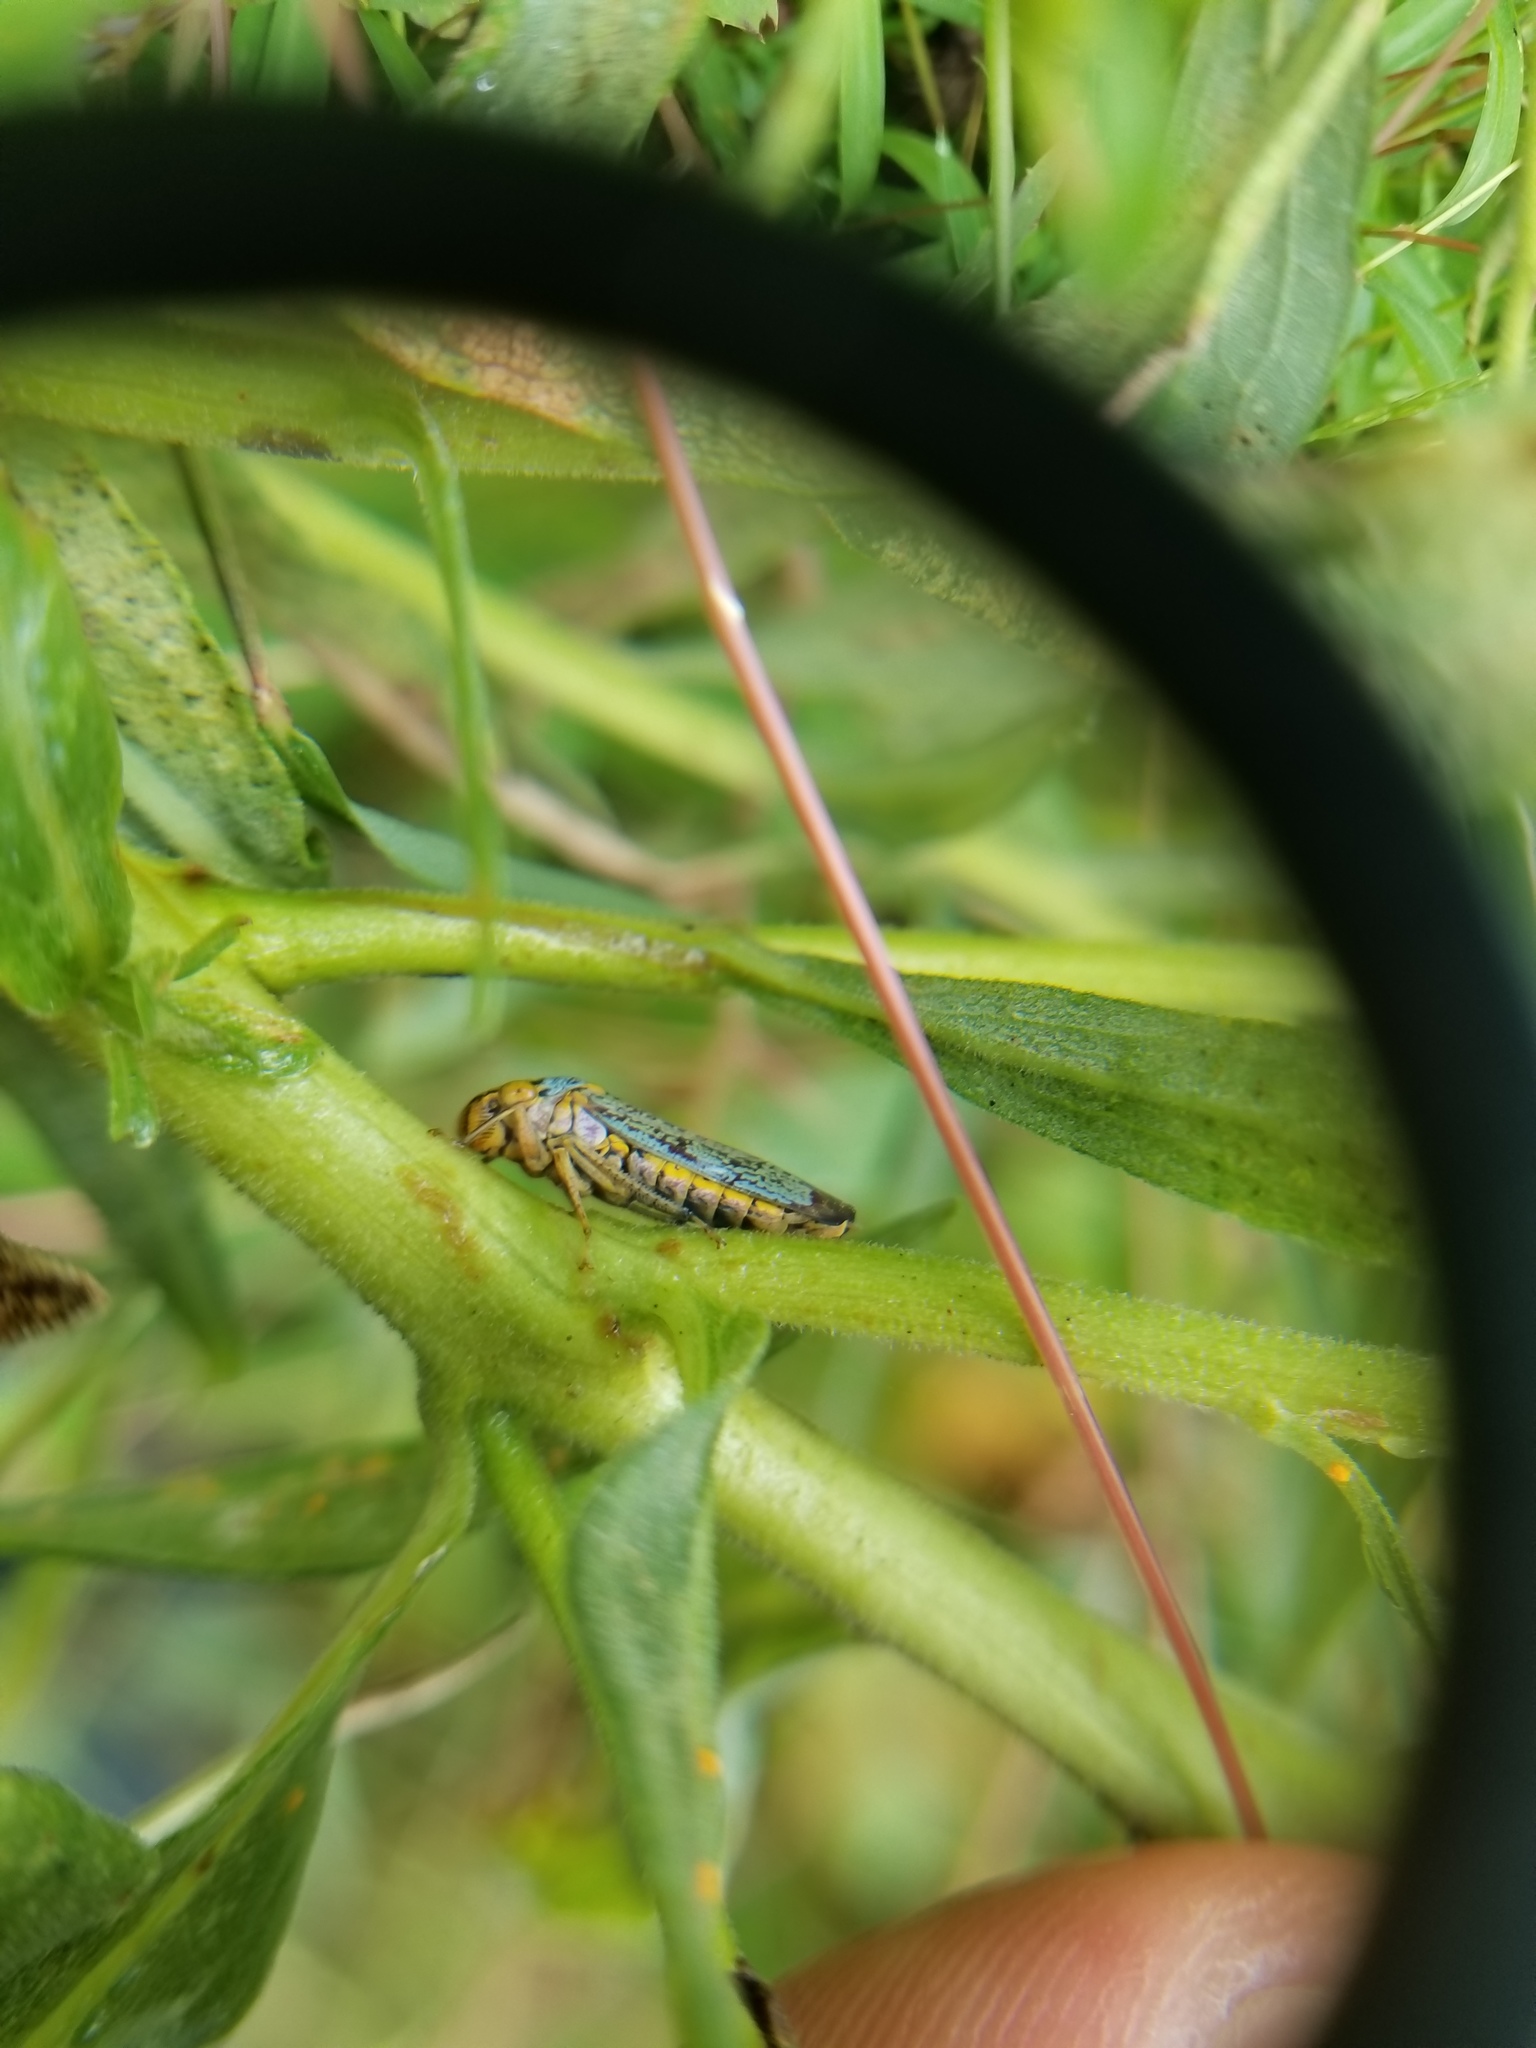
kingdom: Animalia
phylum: Arthropoda
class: Insecta
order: Hemiptera
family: Cicadellidae
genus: Oncometopia
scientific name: Oncometopia orbona
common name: Broad-headed sharpshooter
